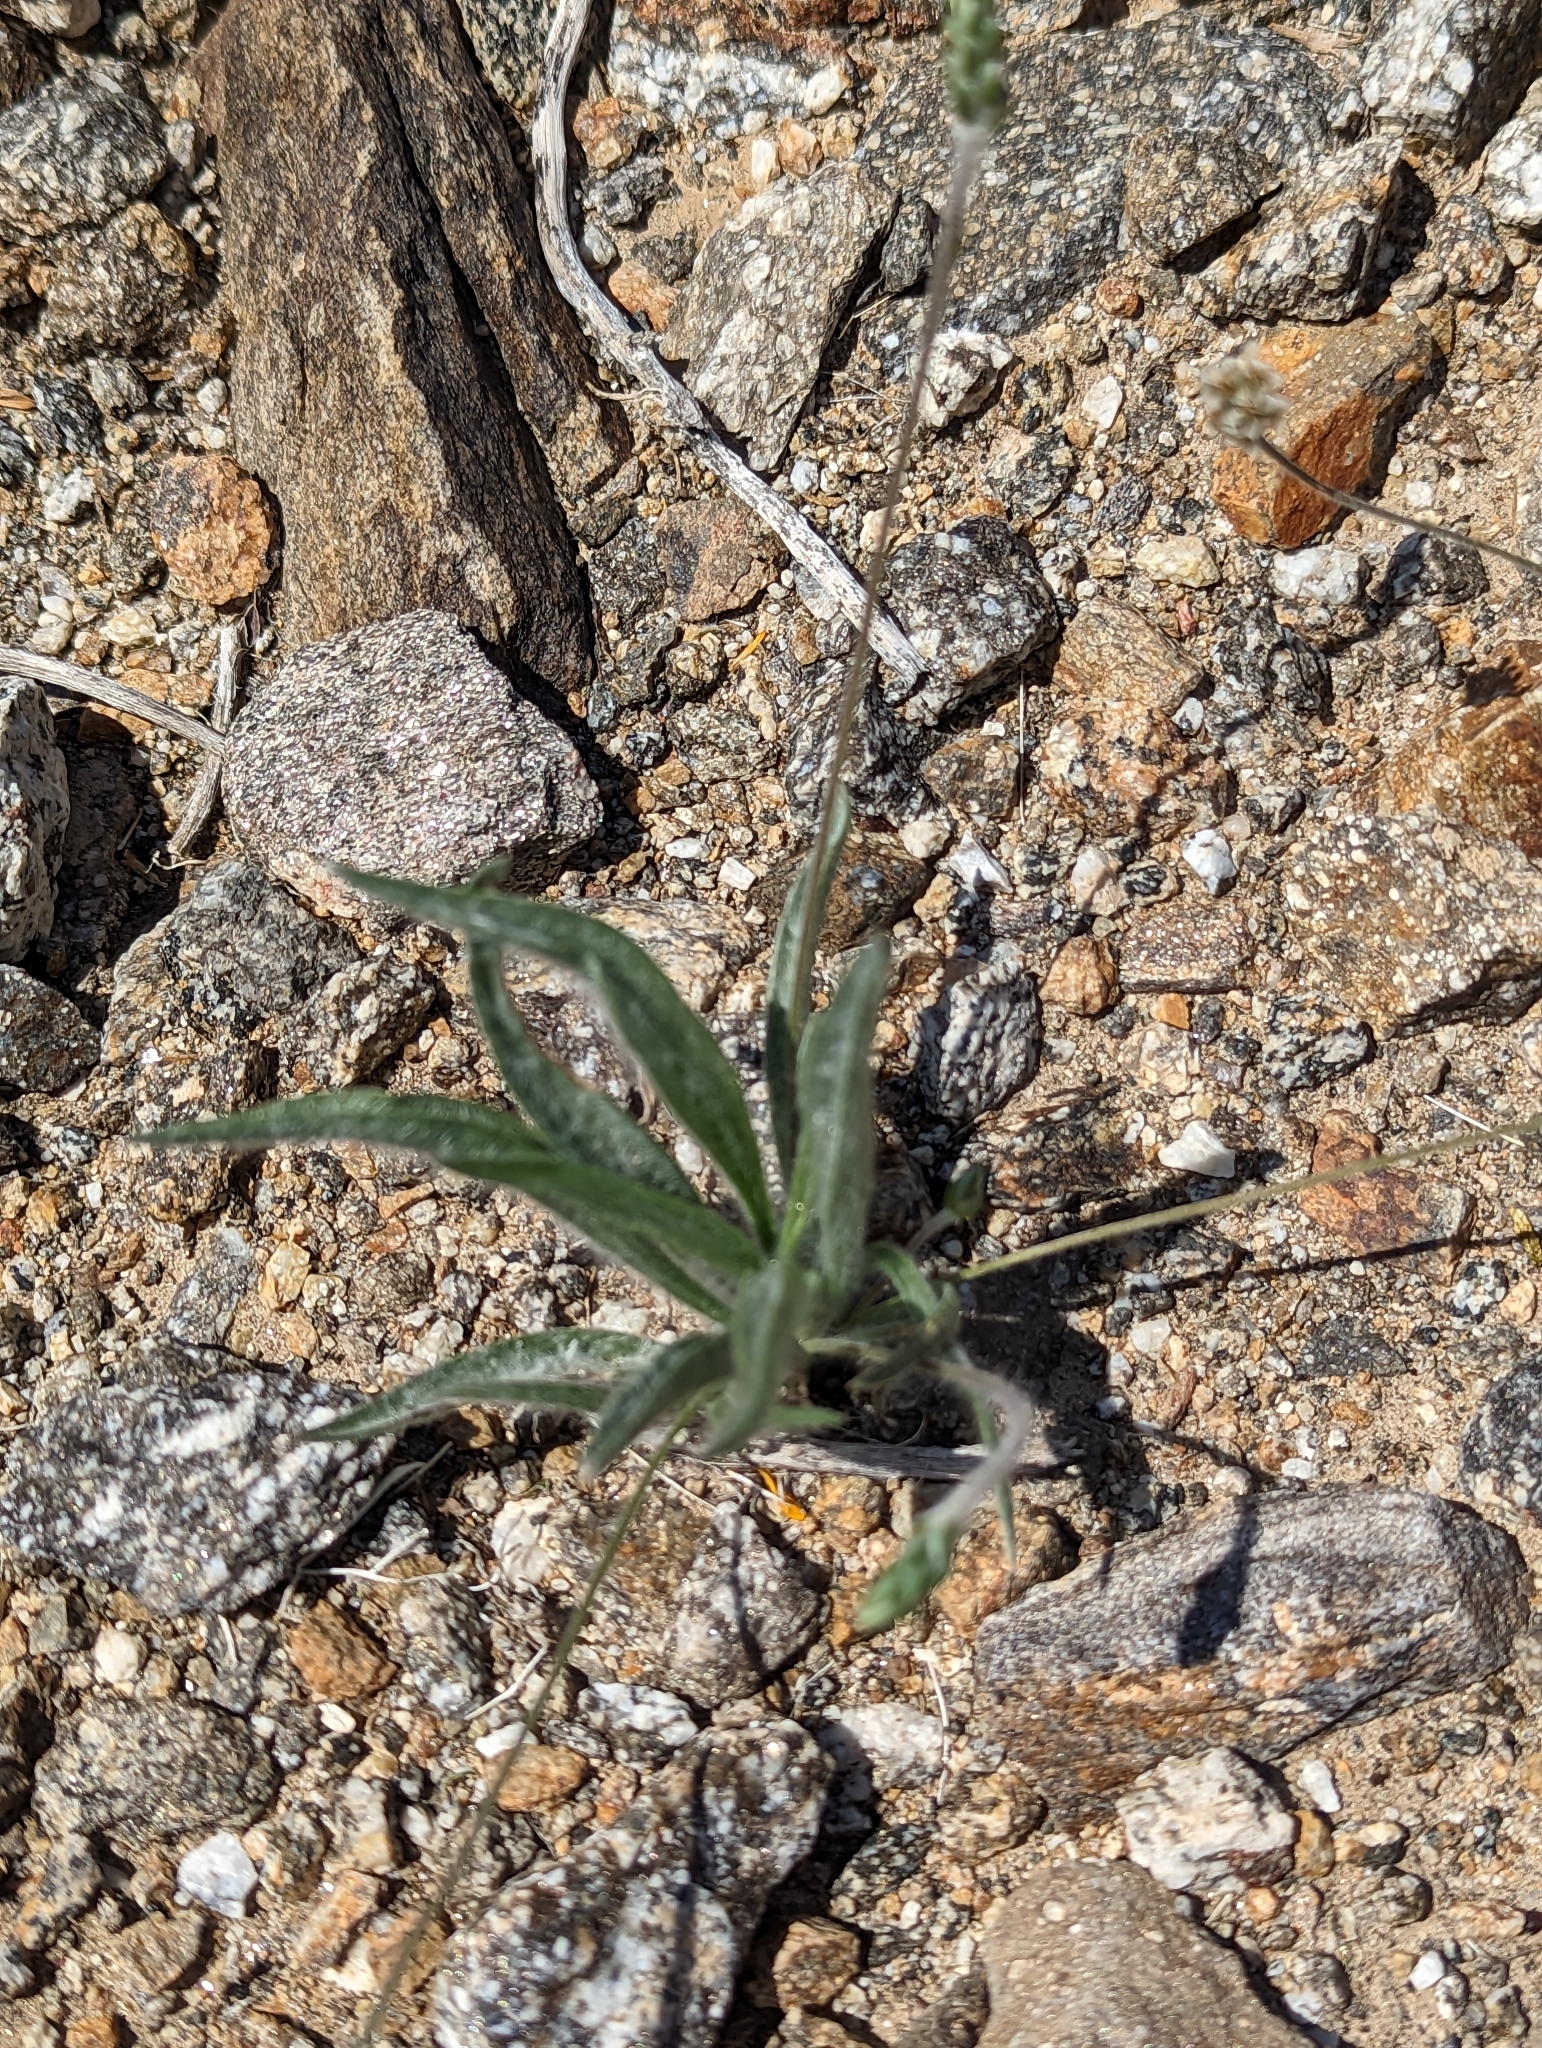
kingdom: Plantae
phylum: Tracheophyta
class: Magnoliopsida
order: Lamiales
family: Plantaginaceae
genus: Plantago
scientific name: Plantago ovata
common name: Blond plantain
